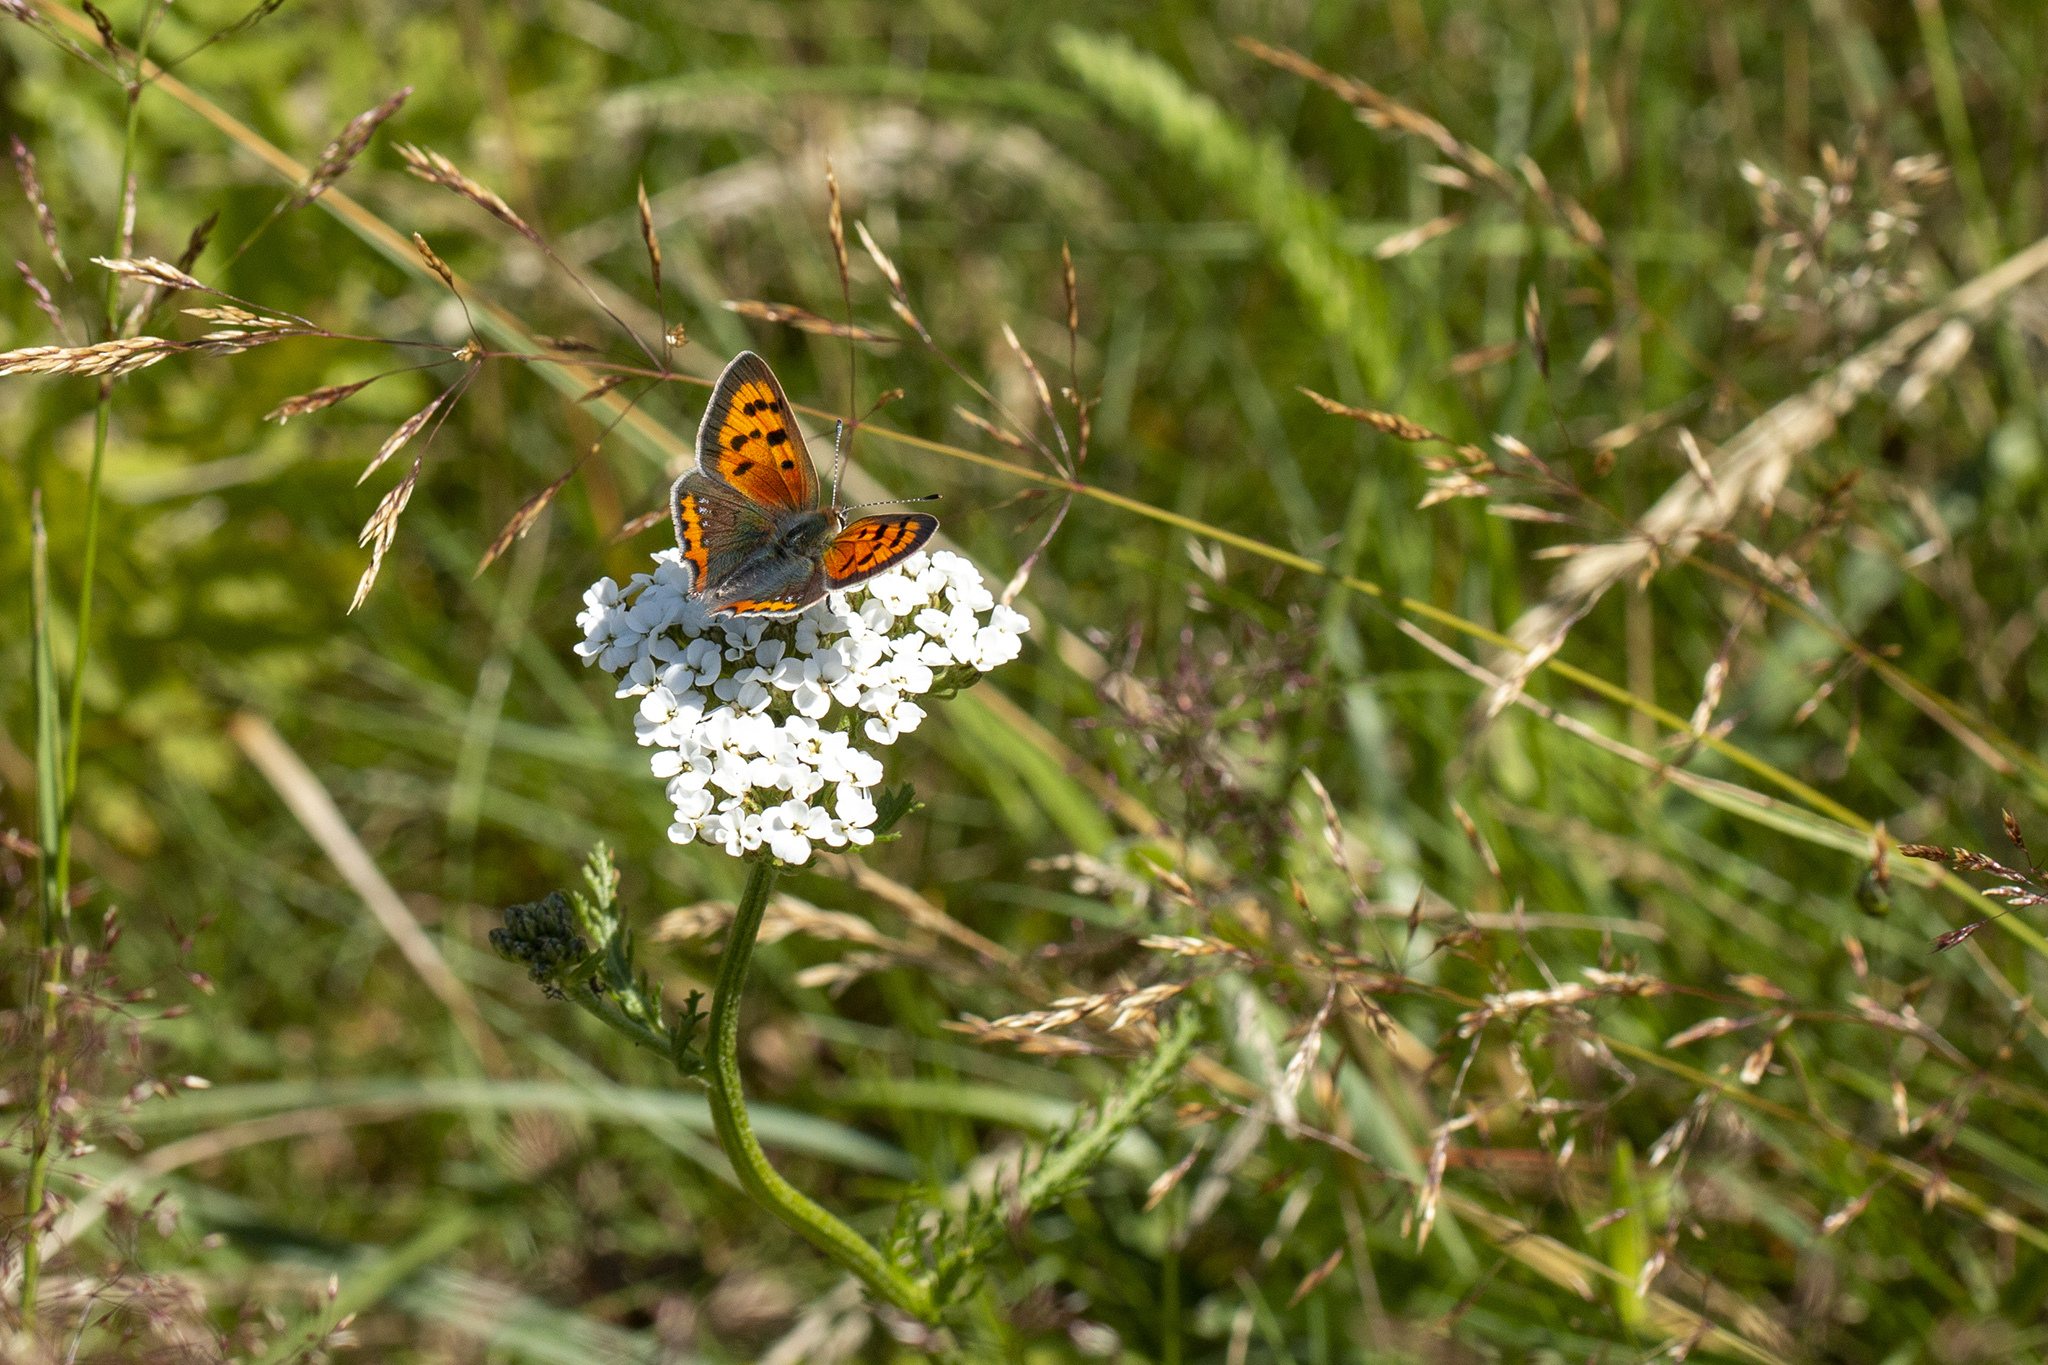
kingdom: Animalia
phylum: Arthropoda
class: Insecta
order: Lepidoptera
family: Lycaenidae
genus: Lycaena
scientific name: Lycaena phlaeas
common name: Small copper
